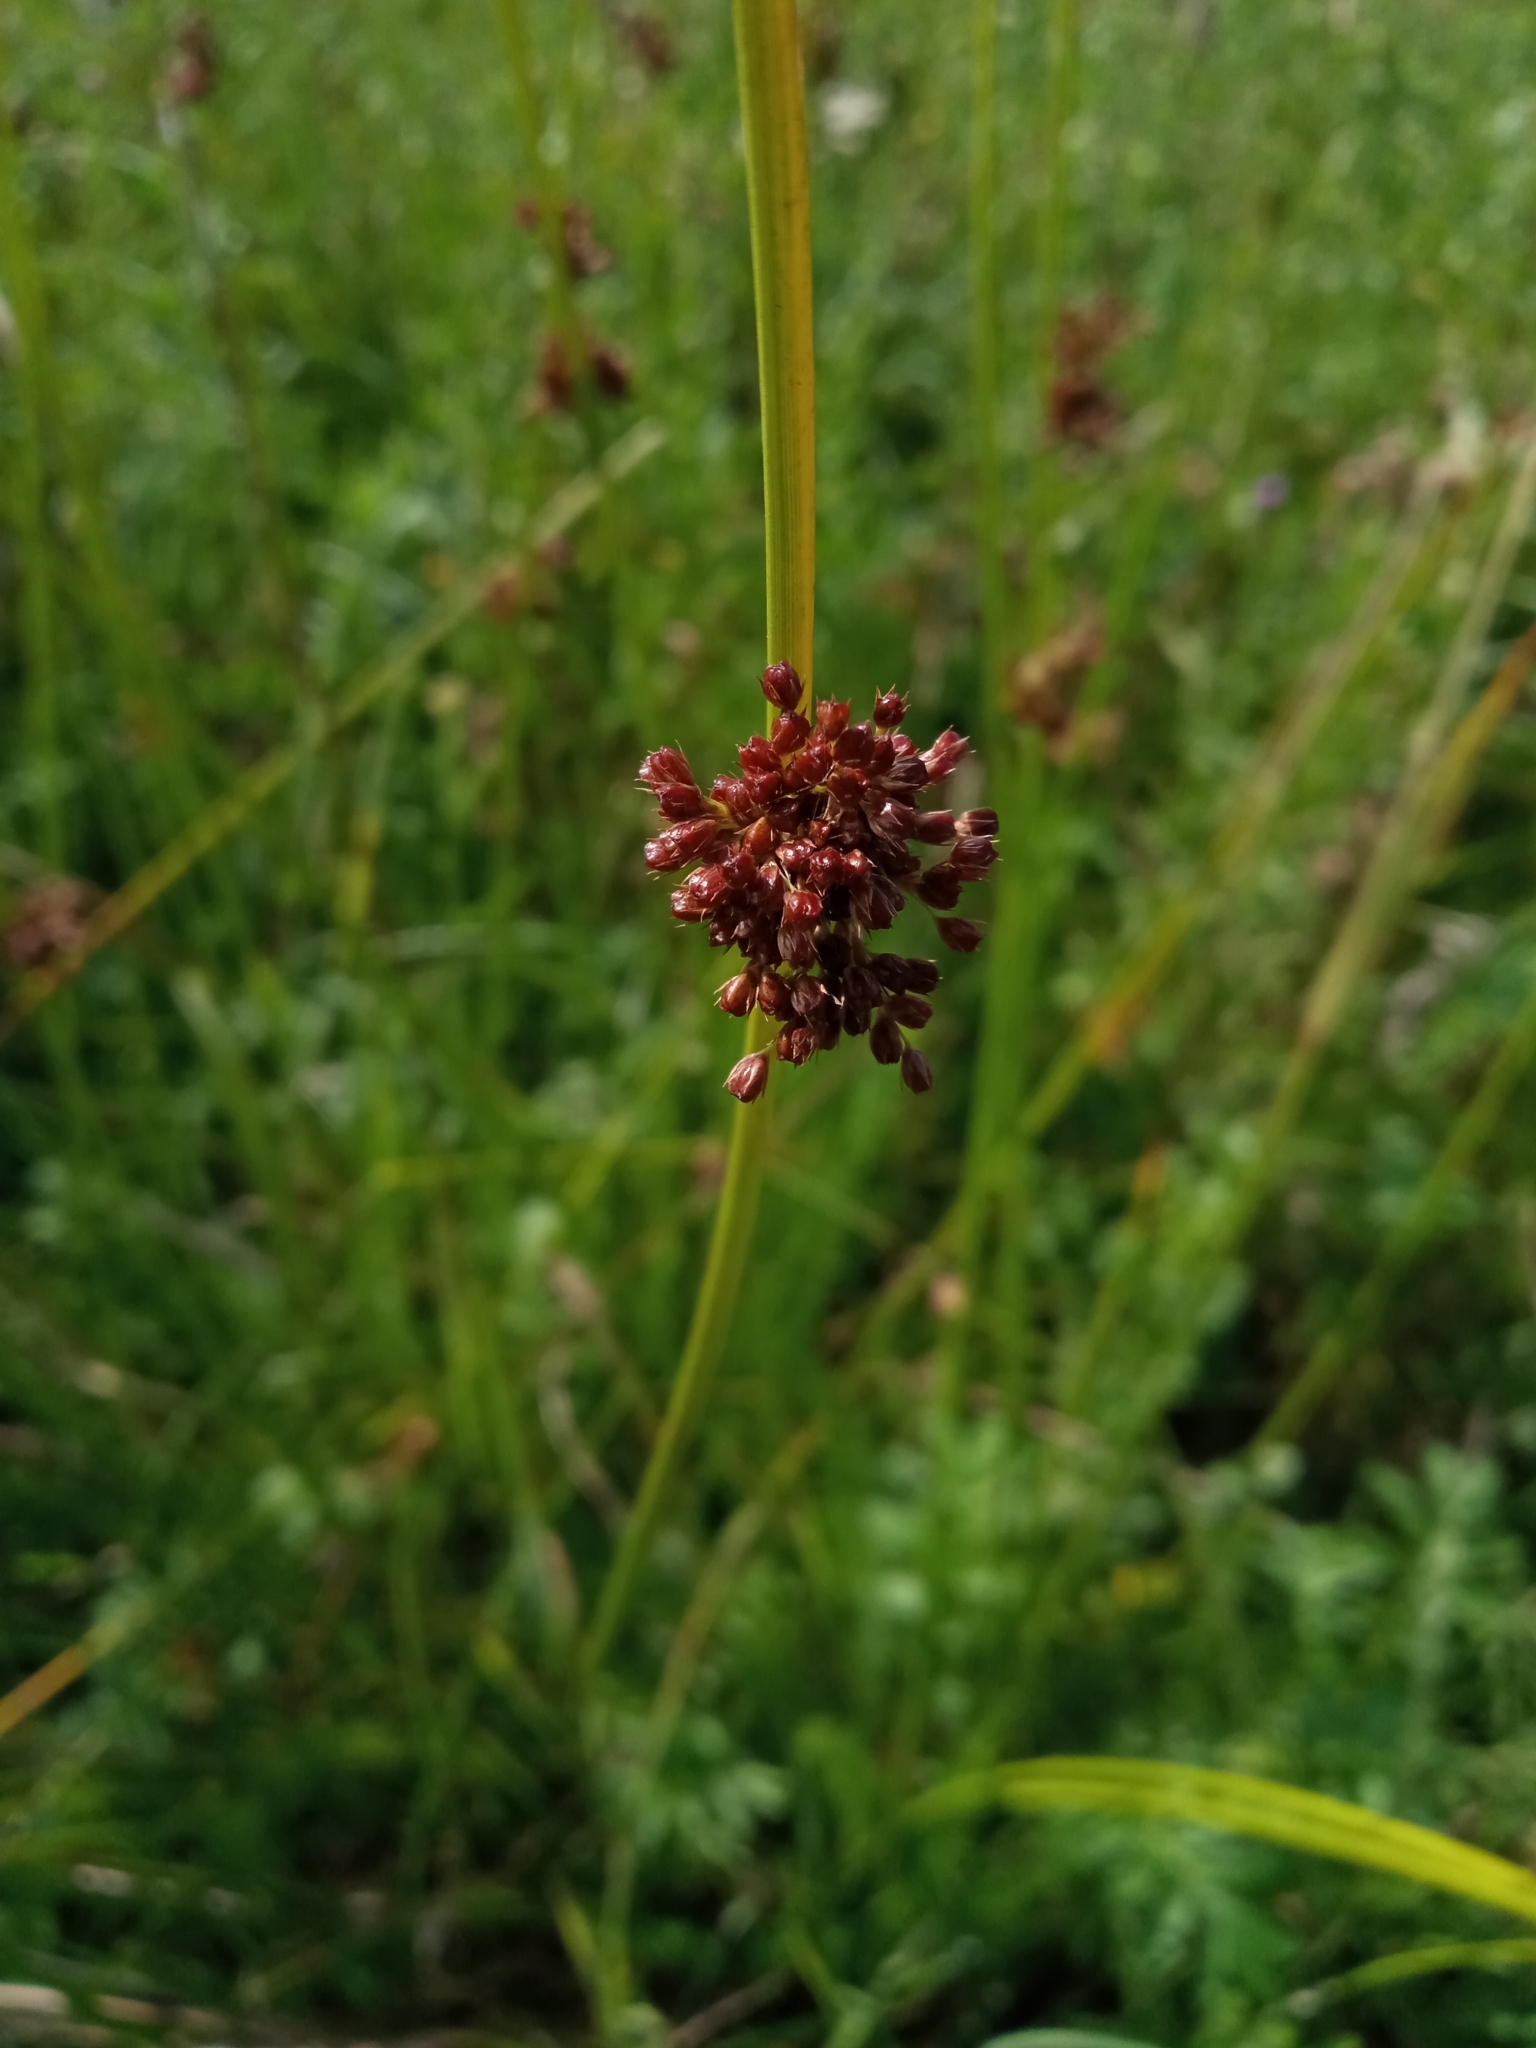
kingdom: Plantae
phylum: Tracheophyta
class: Liliopsida
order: Poales
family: Juncaceae
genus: Juncus
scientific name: Juncus effusus
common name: Soft rush
